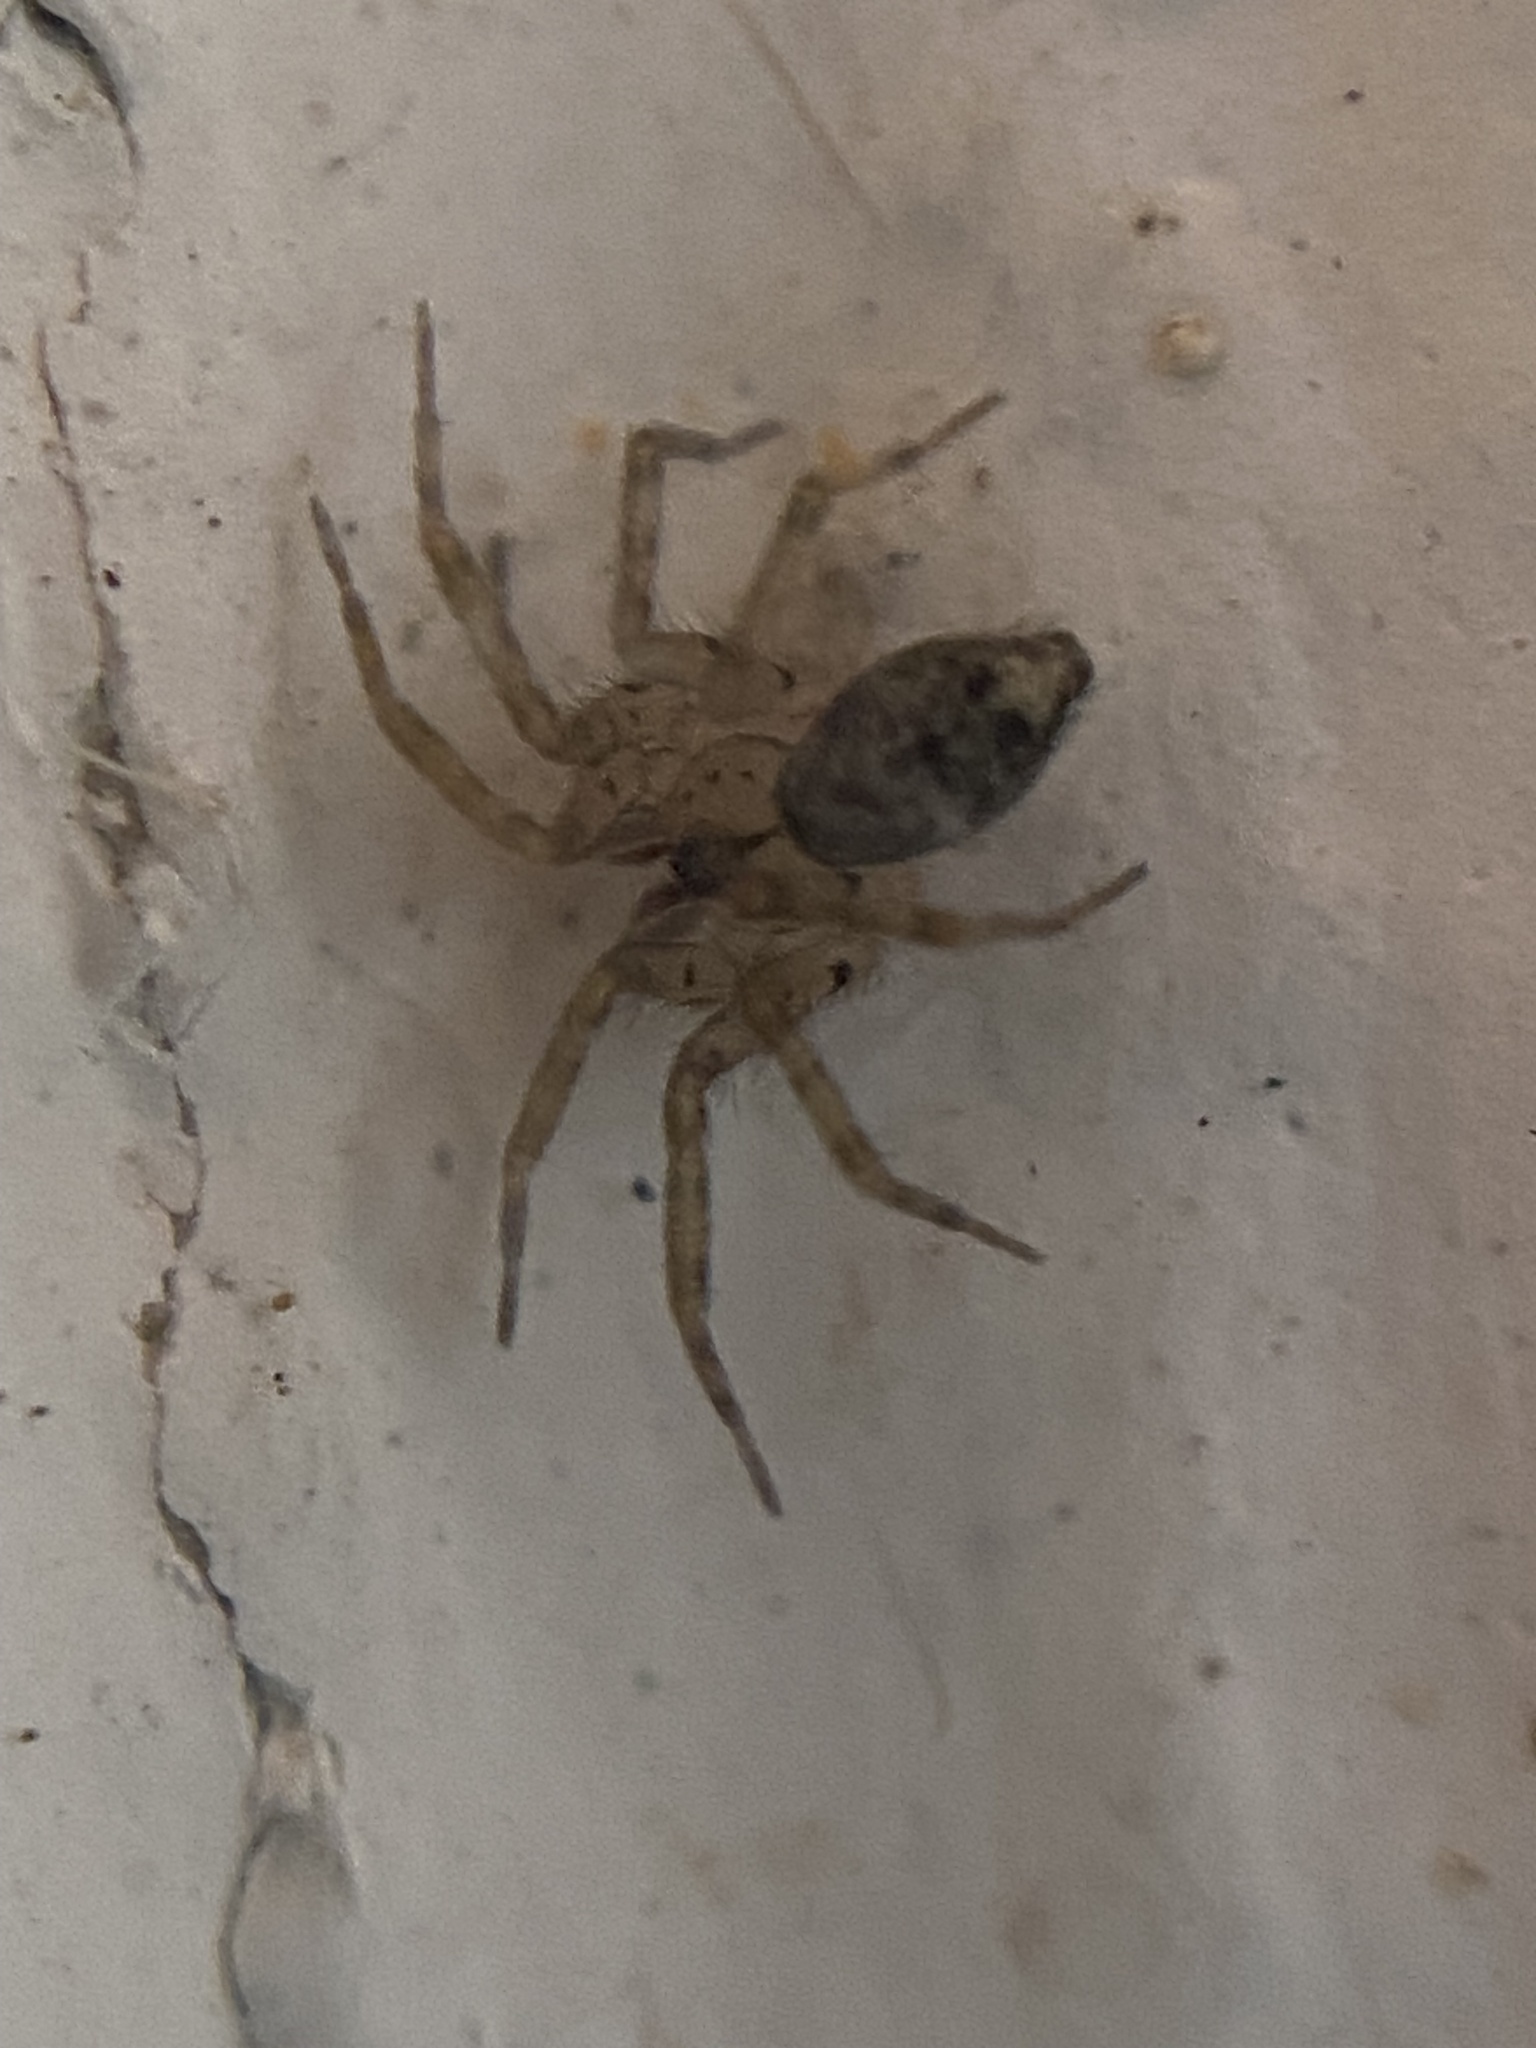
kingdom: Animalia
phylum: Arthropoda
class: Arachnida
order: Araneae
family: Oecobiidae
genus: Oecobius
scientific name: Oecobius navus
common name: Flatmesh weaver
